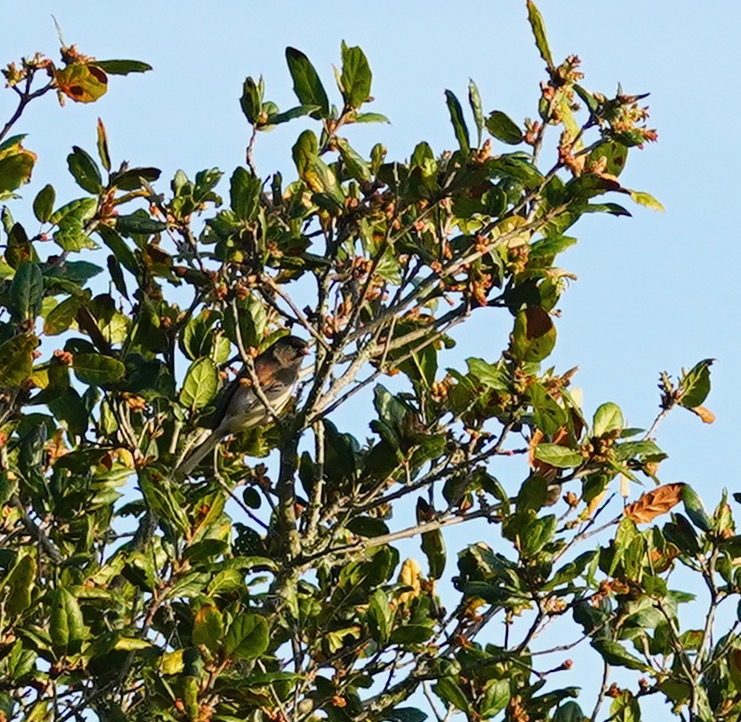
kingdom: Animalia
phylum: Chordata
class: Aves
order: Passeriformes
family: Passerellidae
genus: Junco
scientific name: Junco hyemalis
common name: Dark-eyed junco
